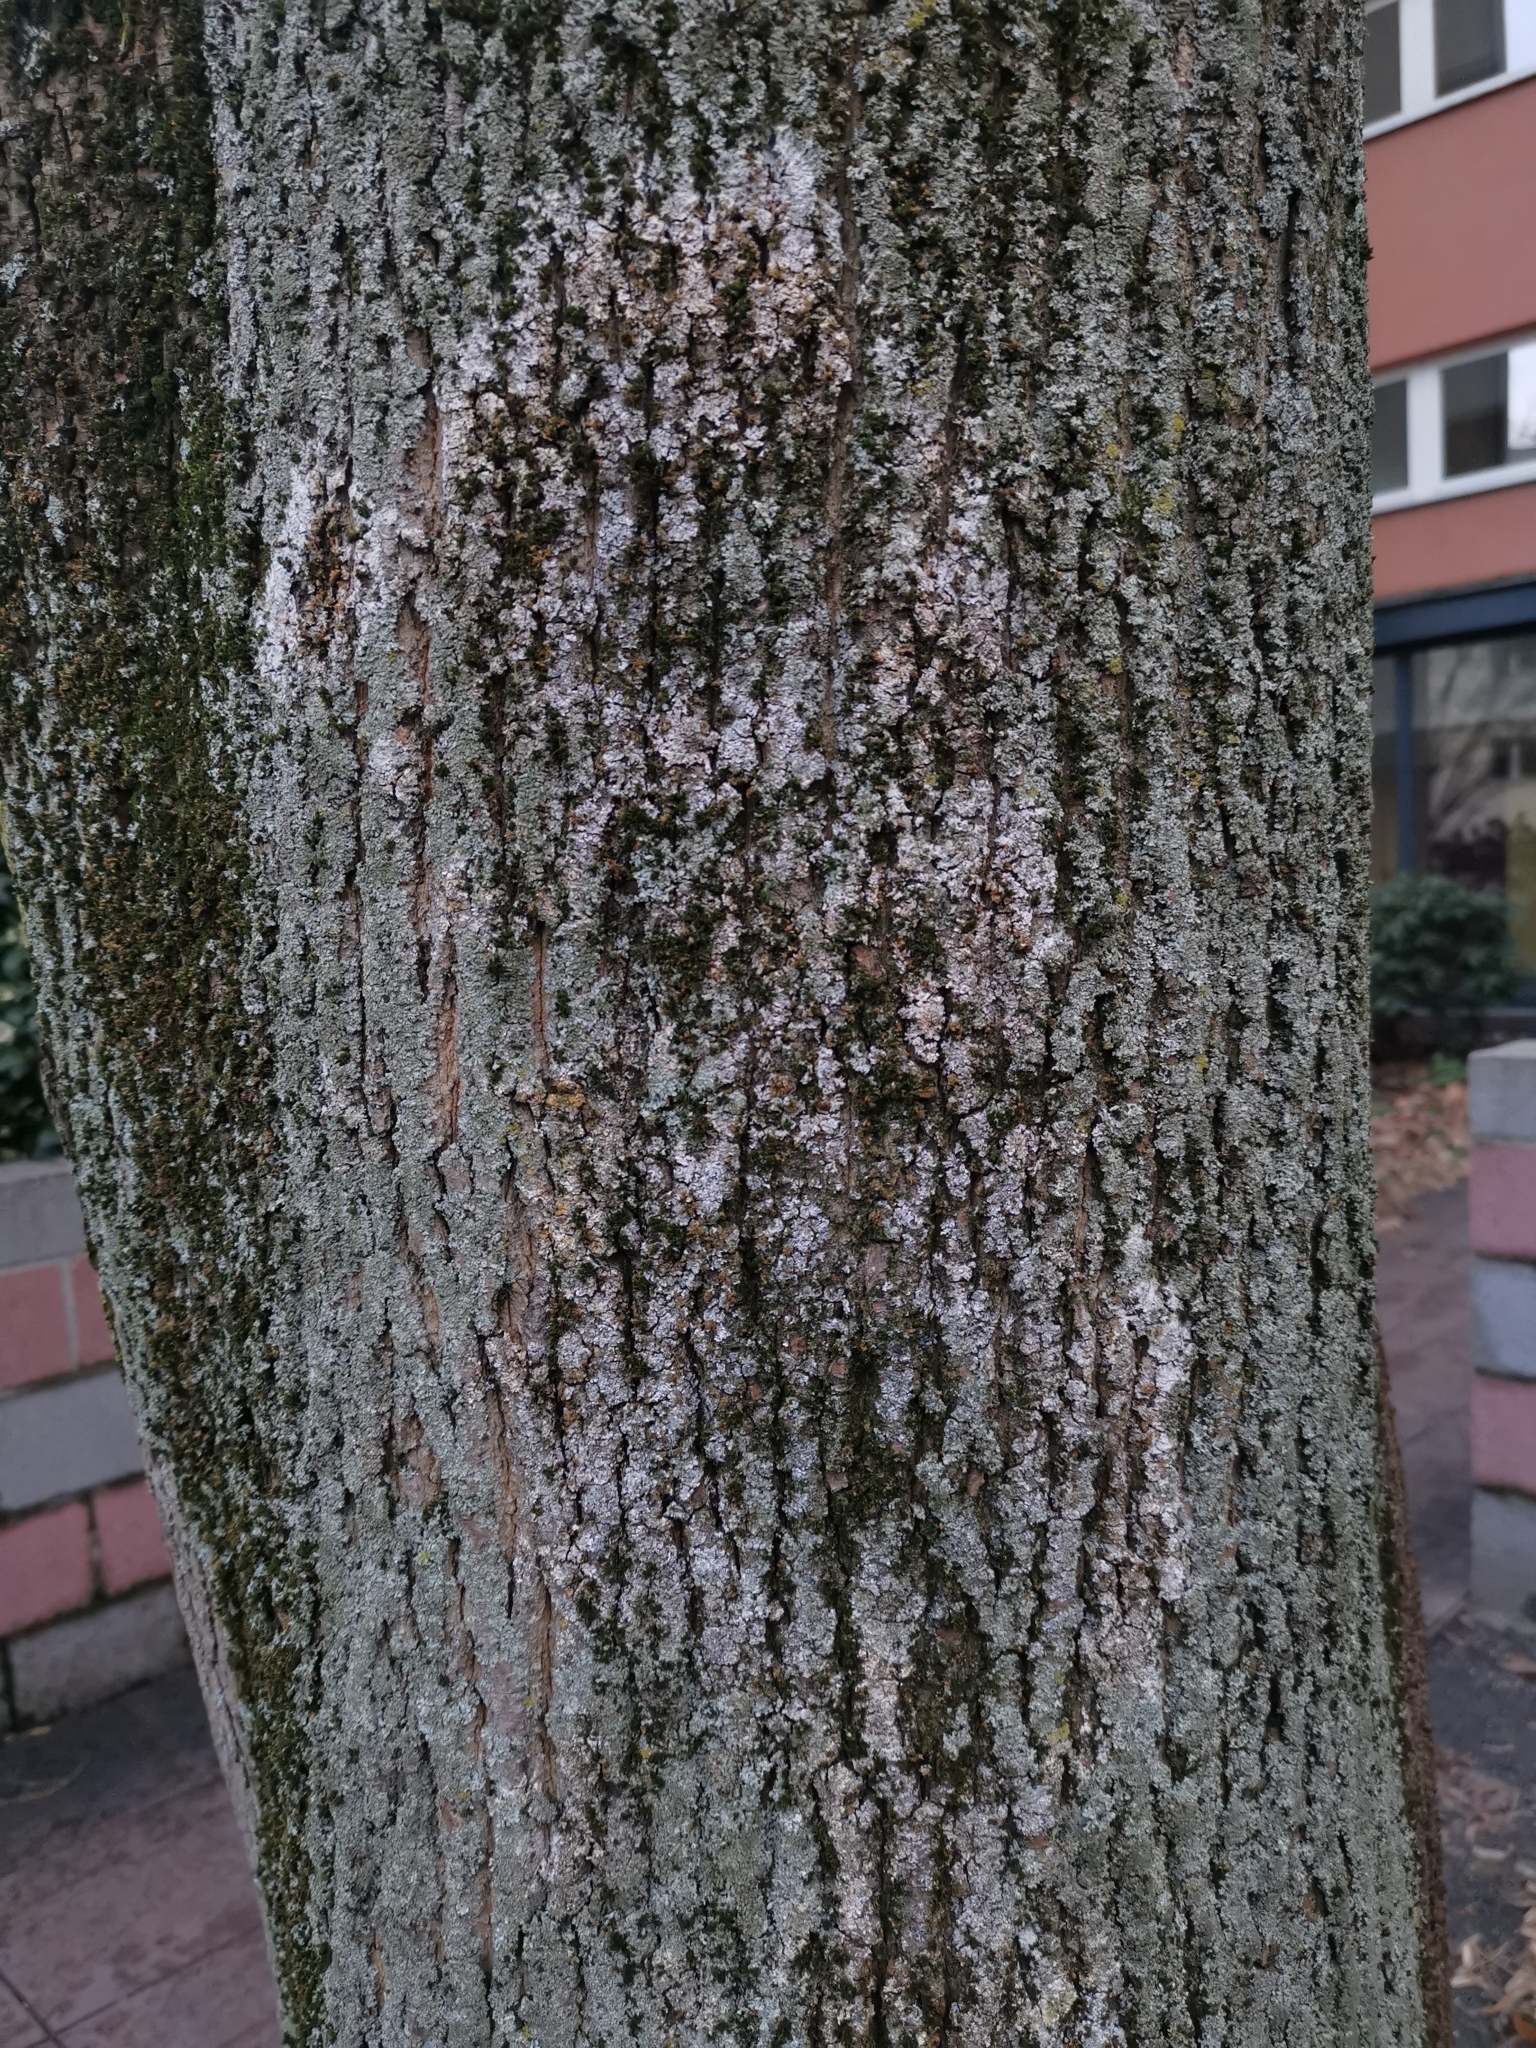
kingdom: Fungi
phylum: Basidiomycota
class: Agaricomycetes
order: Atheliales
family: Atheliaceae
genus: Athelia
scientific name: Athelia arachnoidea
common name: Candelabra duster
